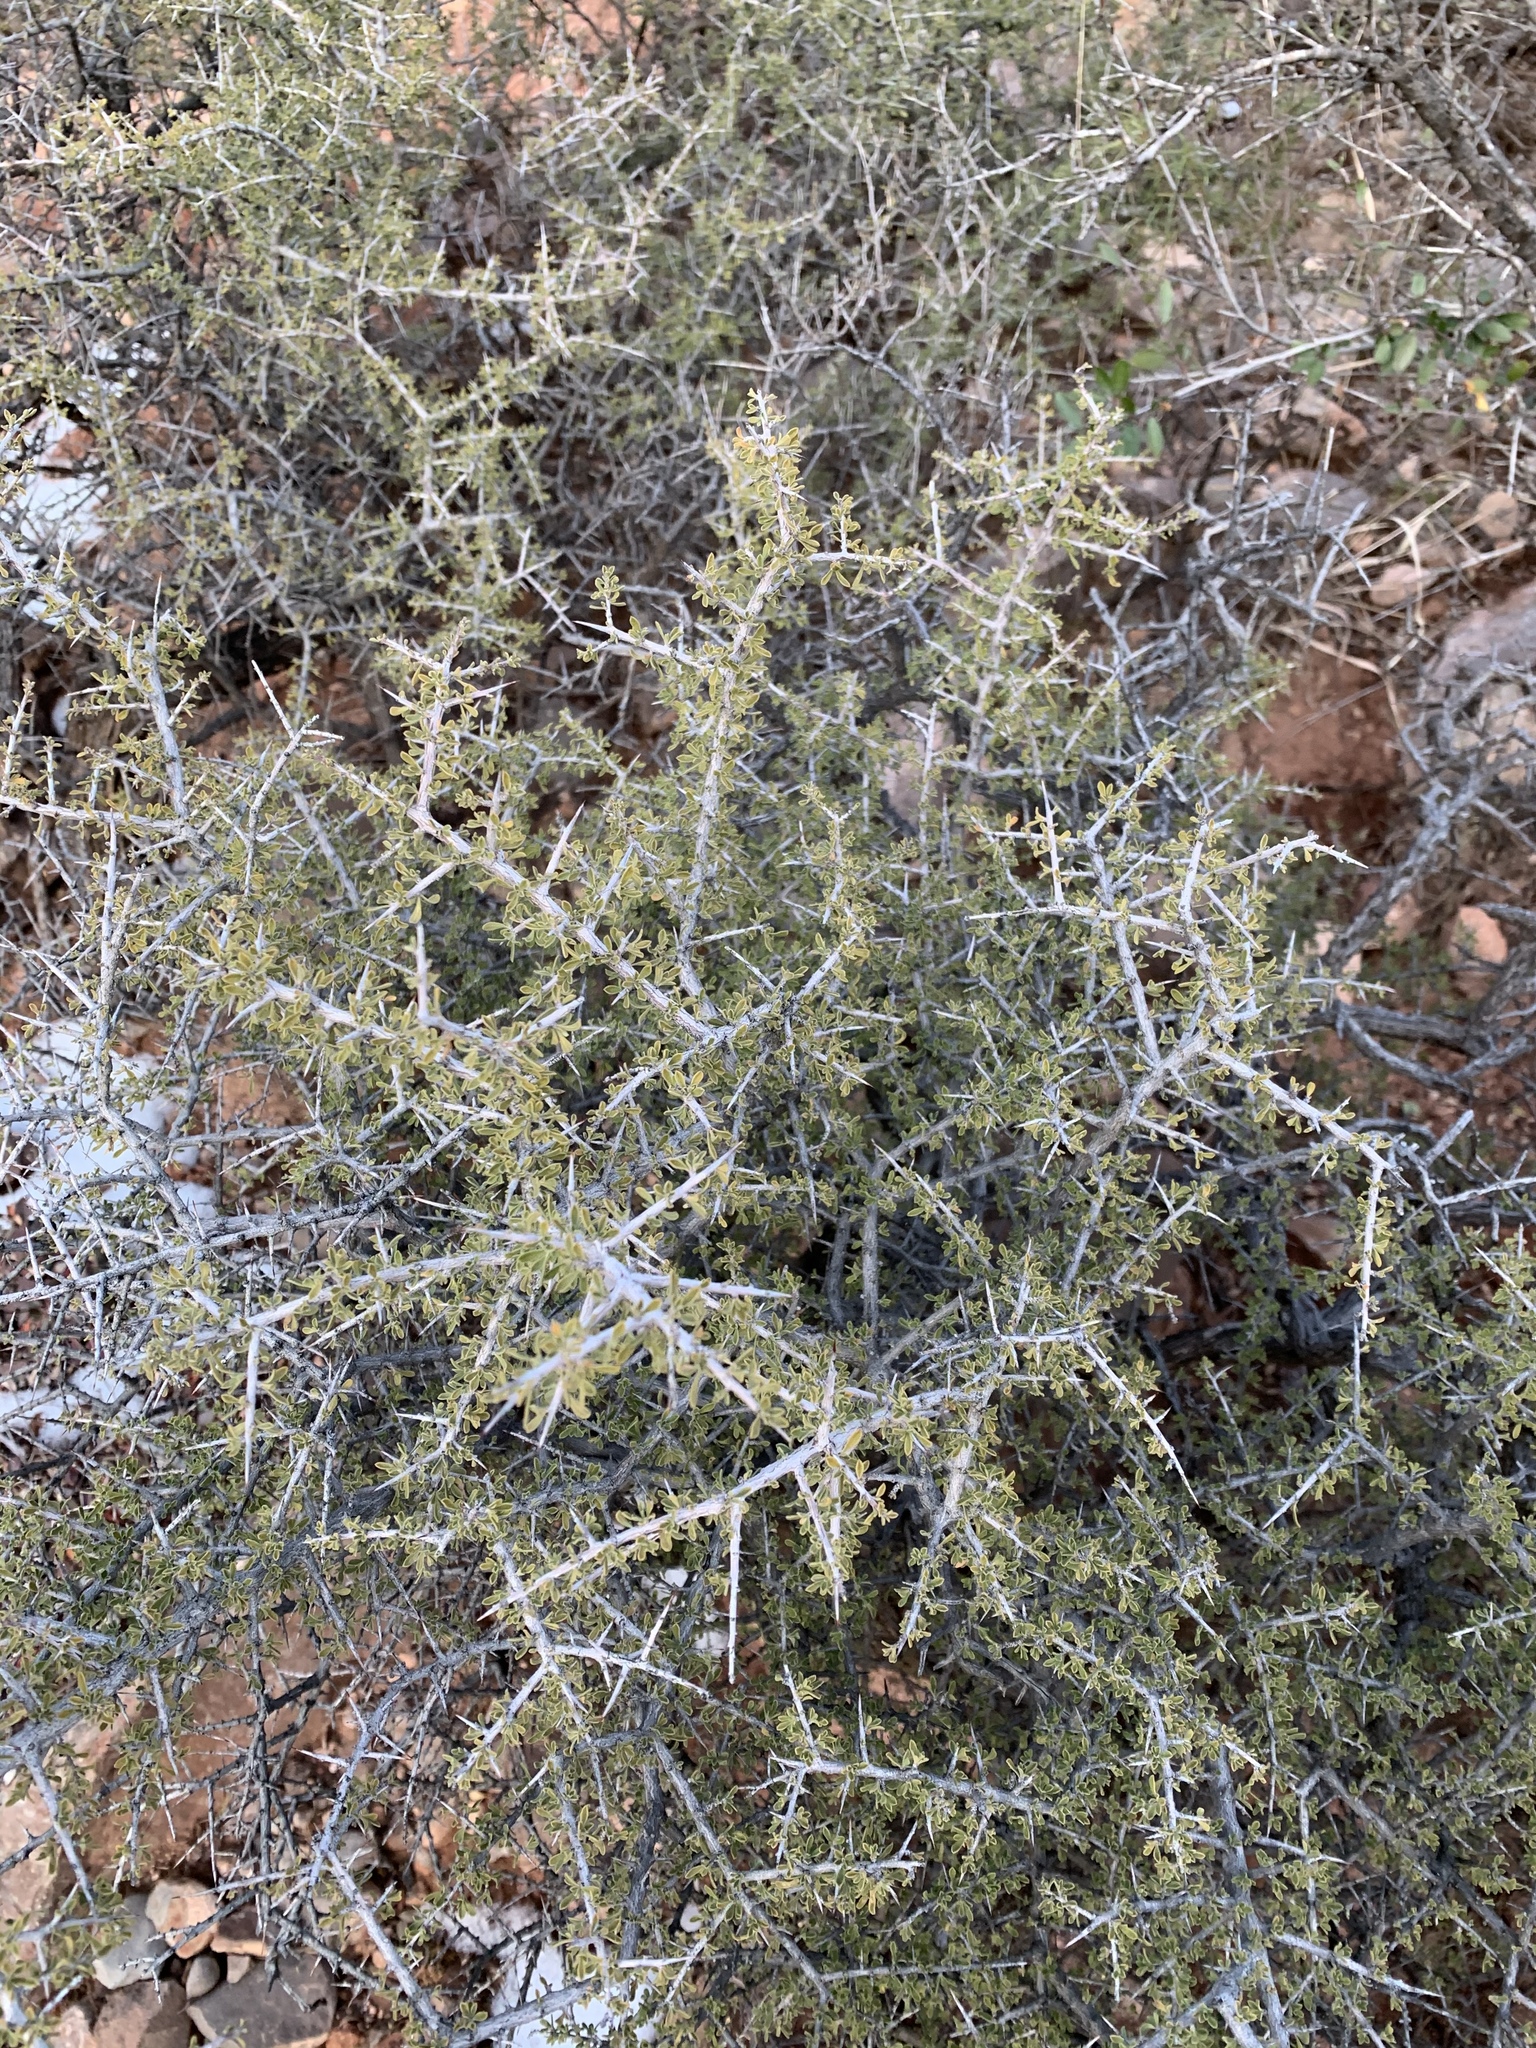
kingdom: Plantae
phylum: Tracheophyta
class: Magnoliopsida
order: Rosales
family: Rhamnaceae
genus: Condalia
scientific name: Condalia warnockii
